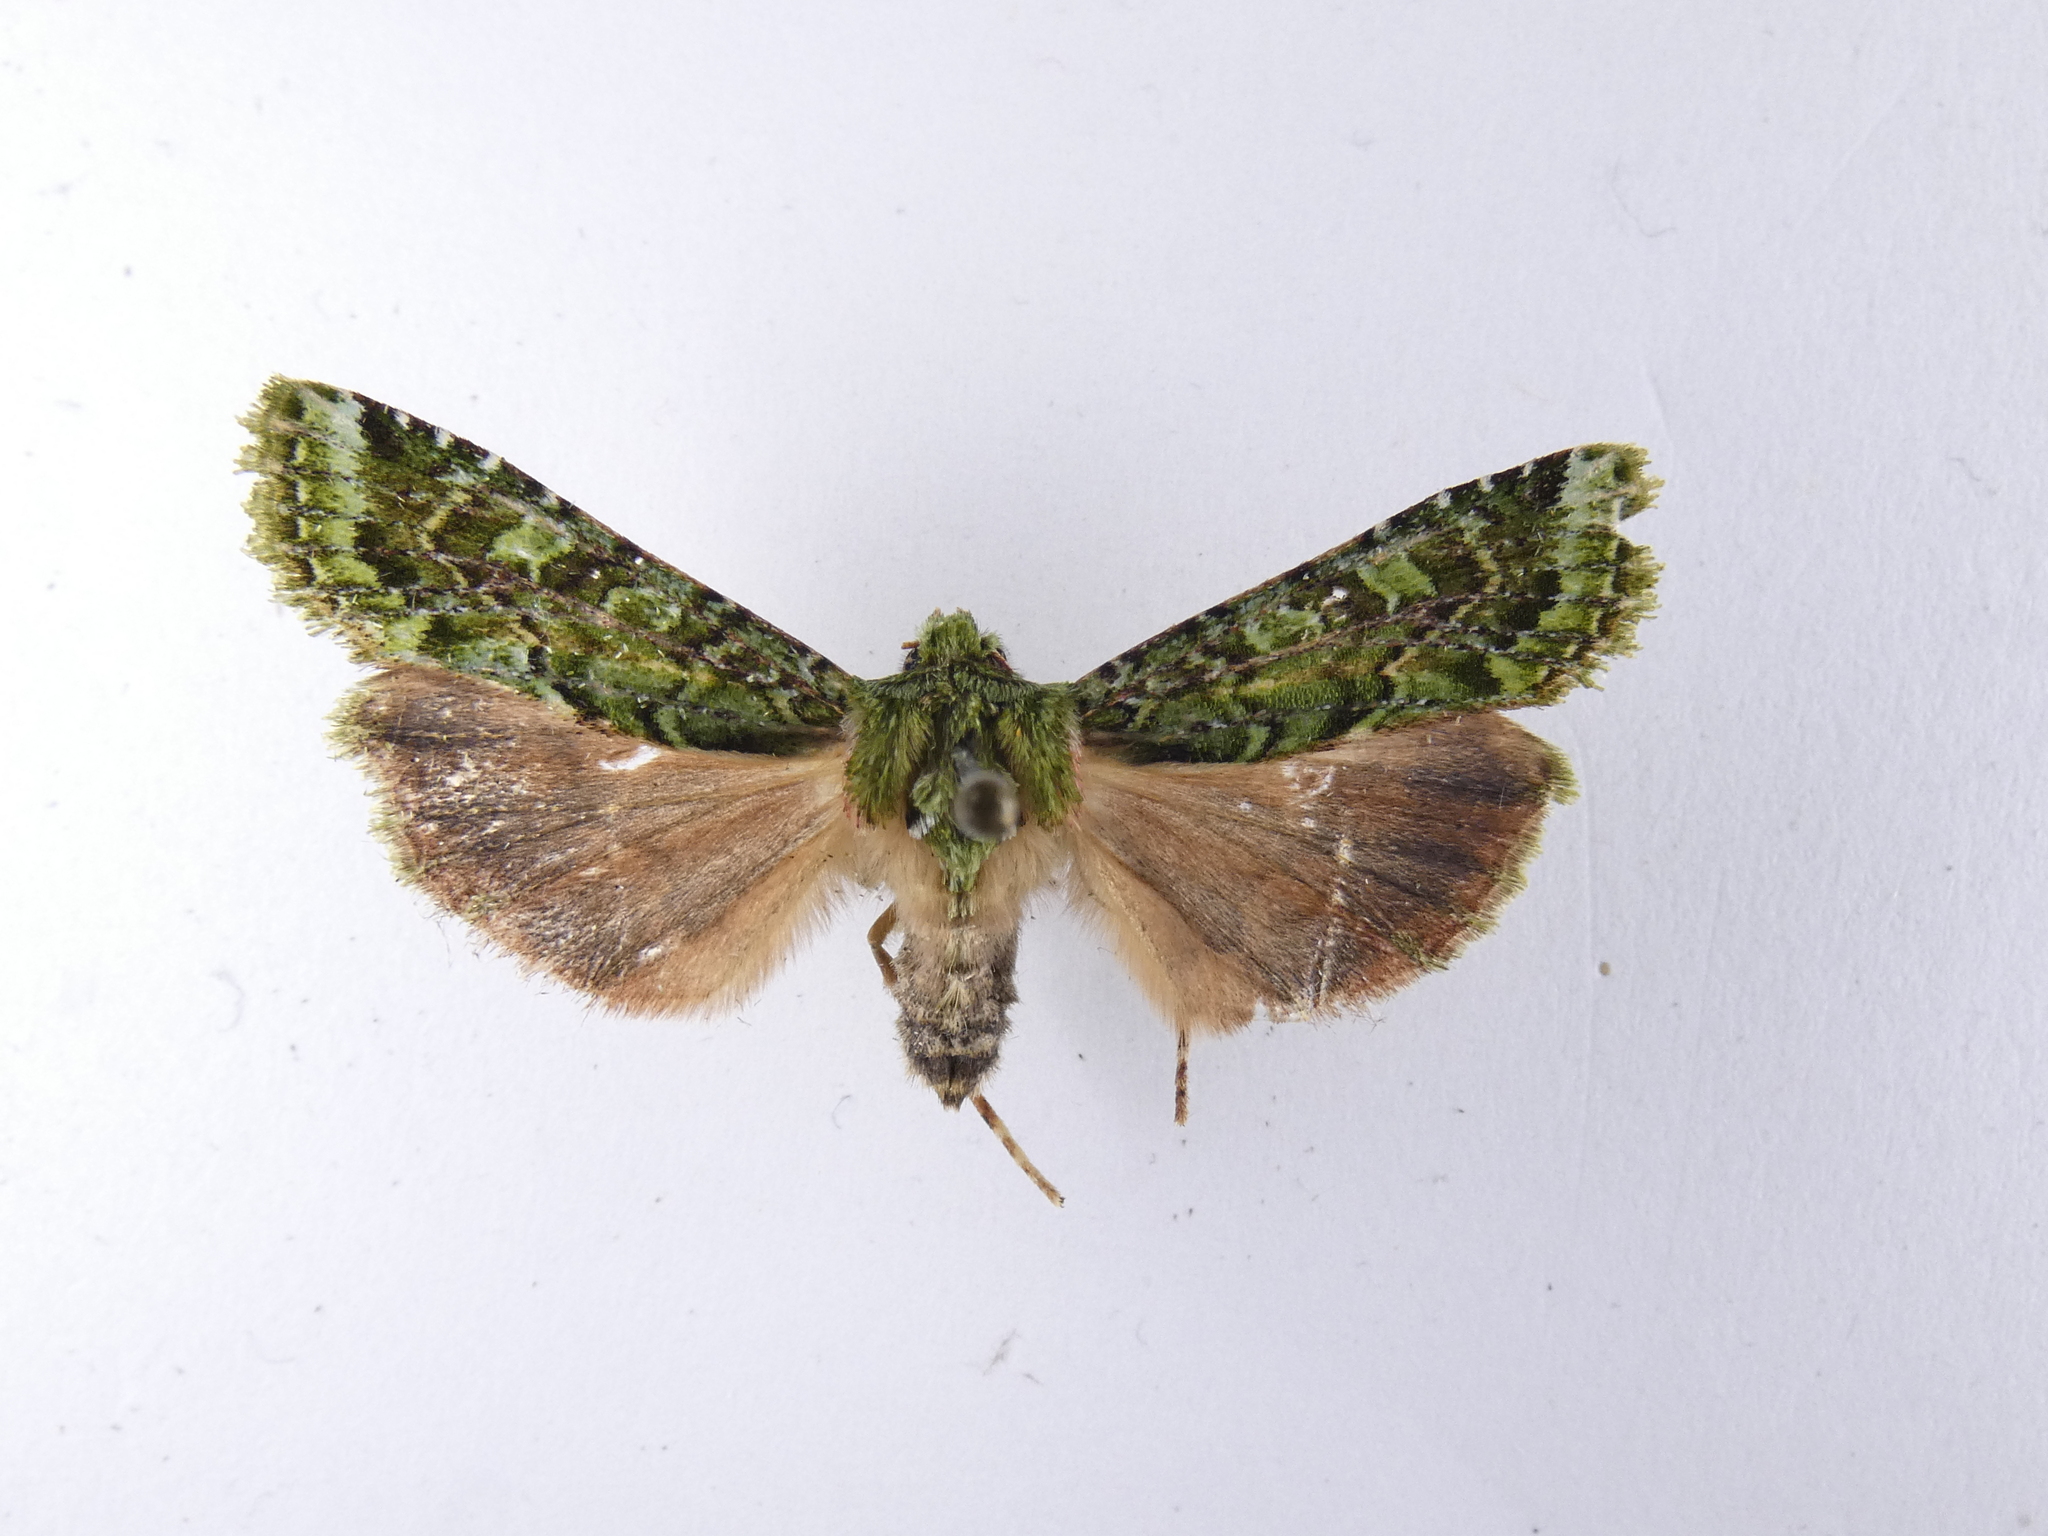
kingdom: Animalia
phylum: Arthropoda
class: Insecta
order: Lepidoptera
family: Noctuidae
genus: Feredayia
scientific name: Feredayia grammosa
